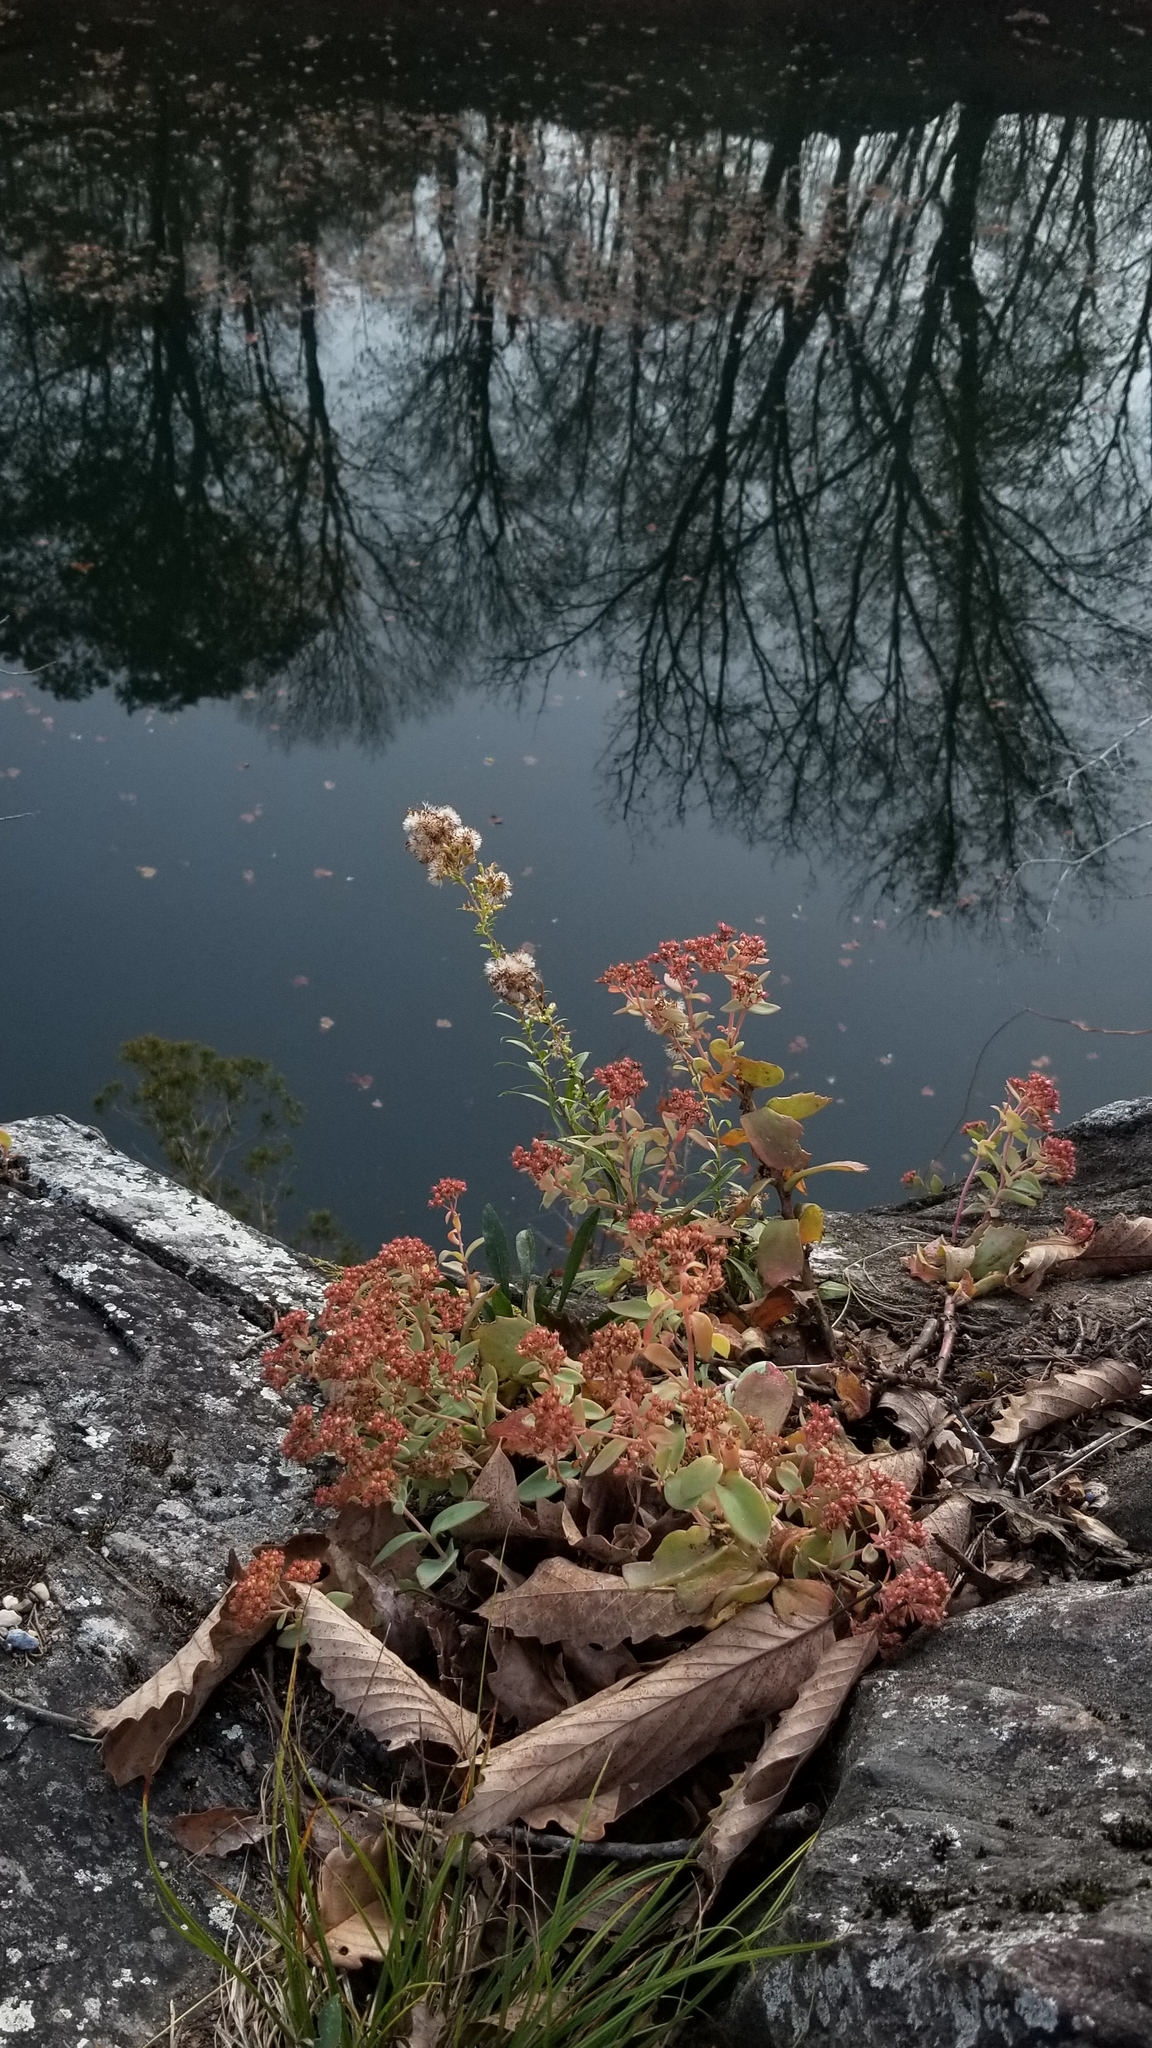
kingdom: Plantae
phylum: Tracheophyta
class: Magnoliopsida
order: Asterales
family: Asteraceae
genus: Solidago
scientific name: Solidago racemosa
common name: Lake ontario goldenrod
